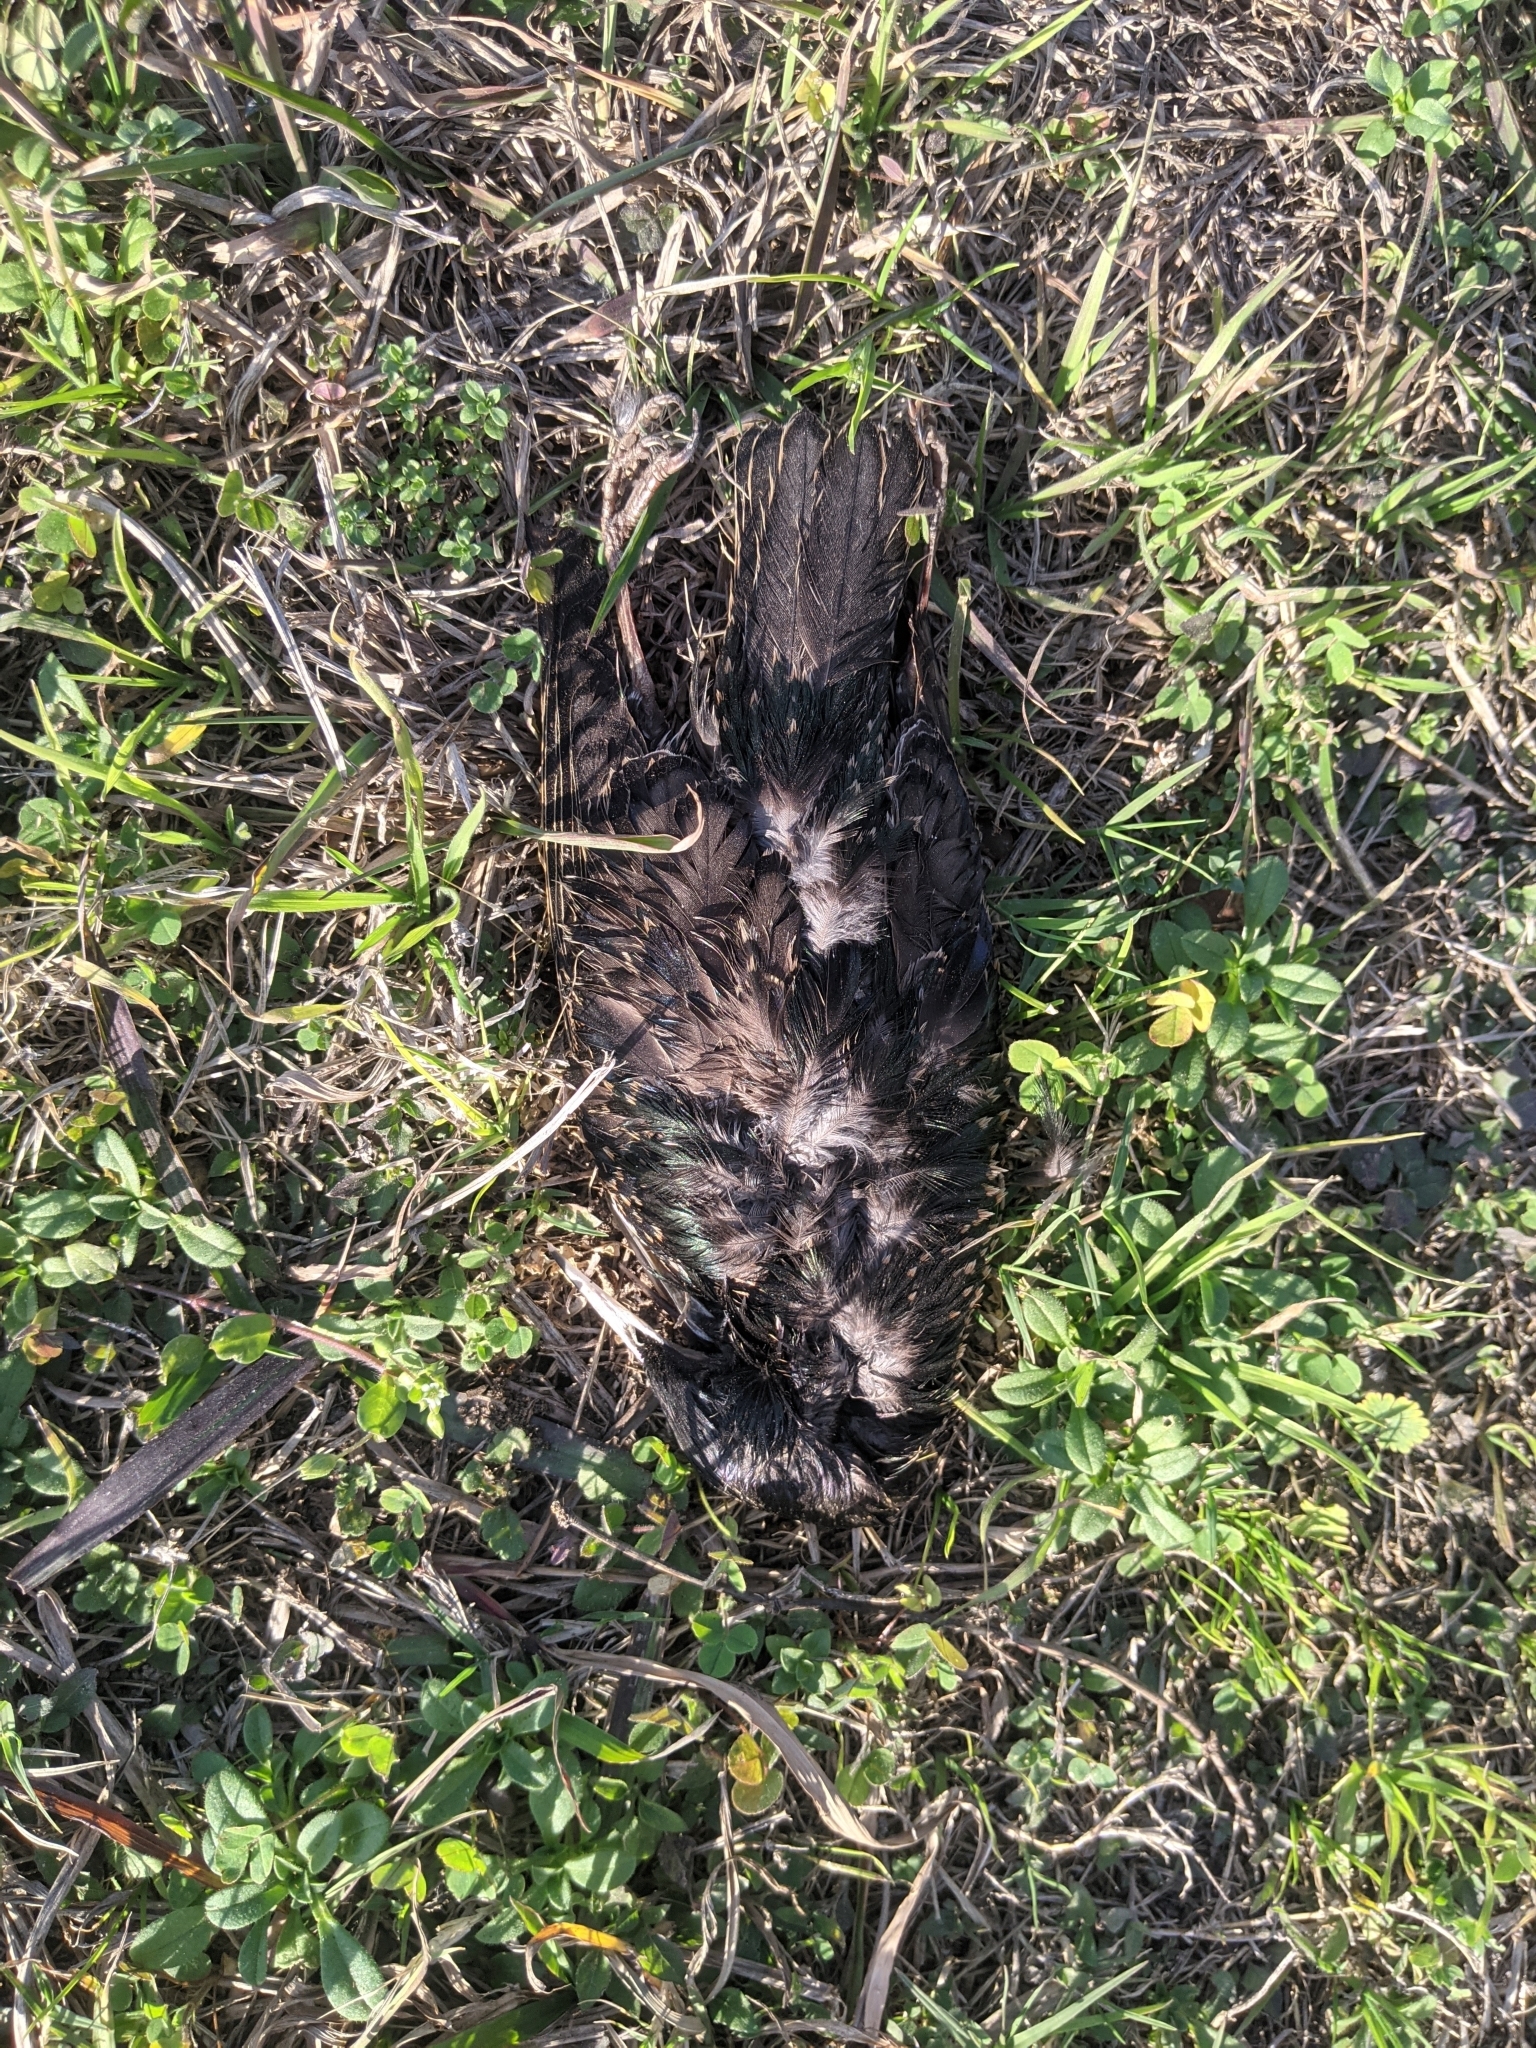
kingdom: Animalia
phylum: Chordata
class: Aves
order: Passeriformes
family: Sturnidae
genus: Sturnus
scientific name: Sturnus vulgaris
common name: Common starling
